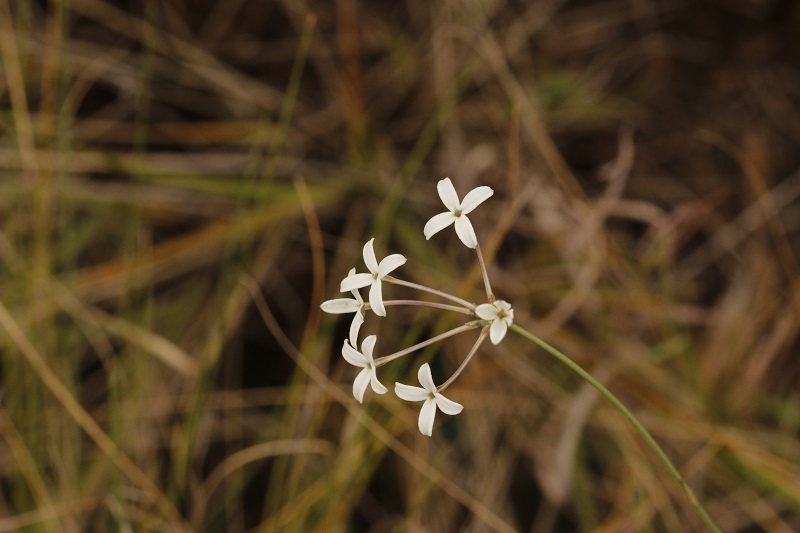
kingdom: Plantae
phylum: Tracheophyta
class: Magnoliopsida
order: Gentianales
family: Rubiaceae
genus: Kohautia
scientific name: Kohautia amatymbica
